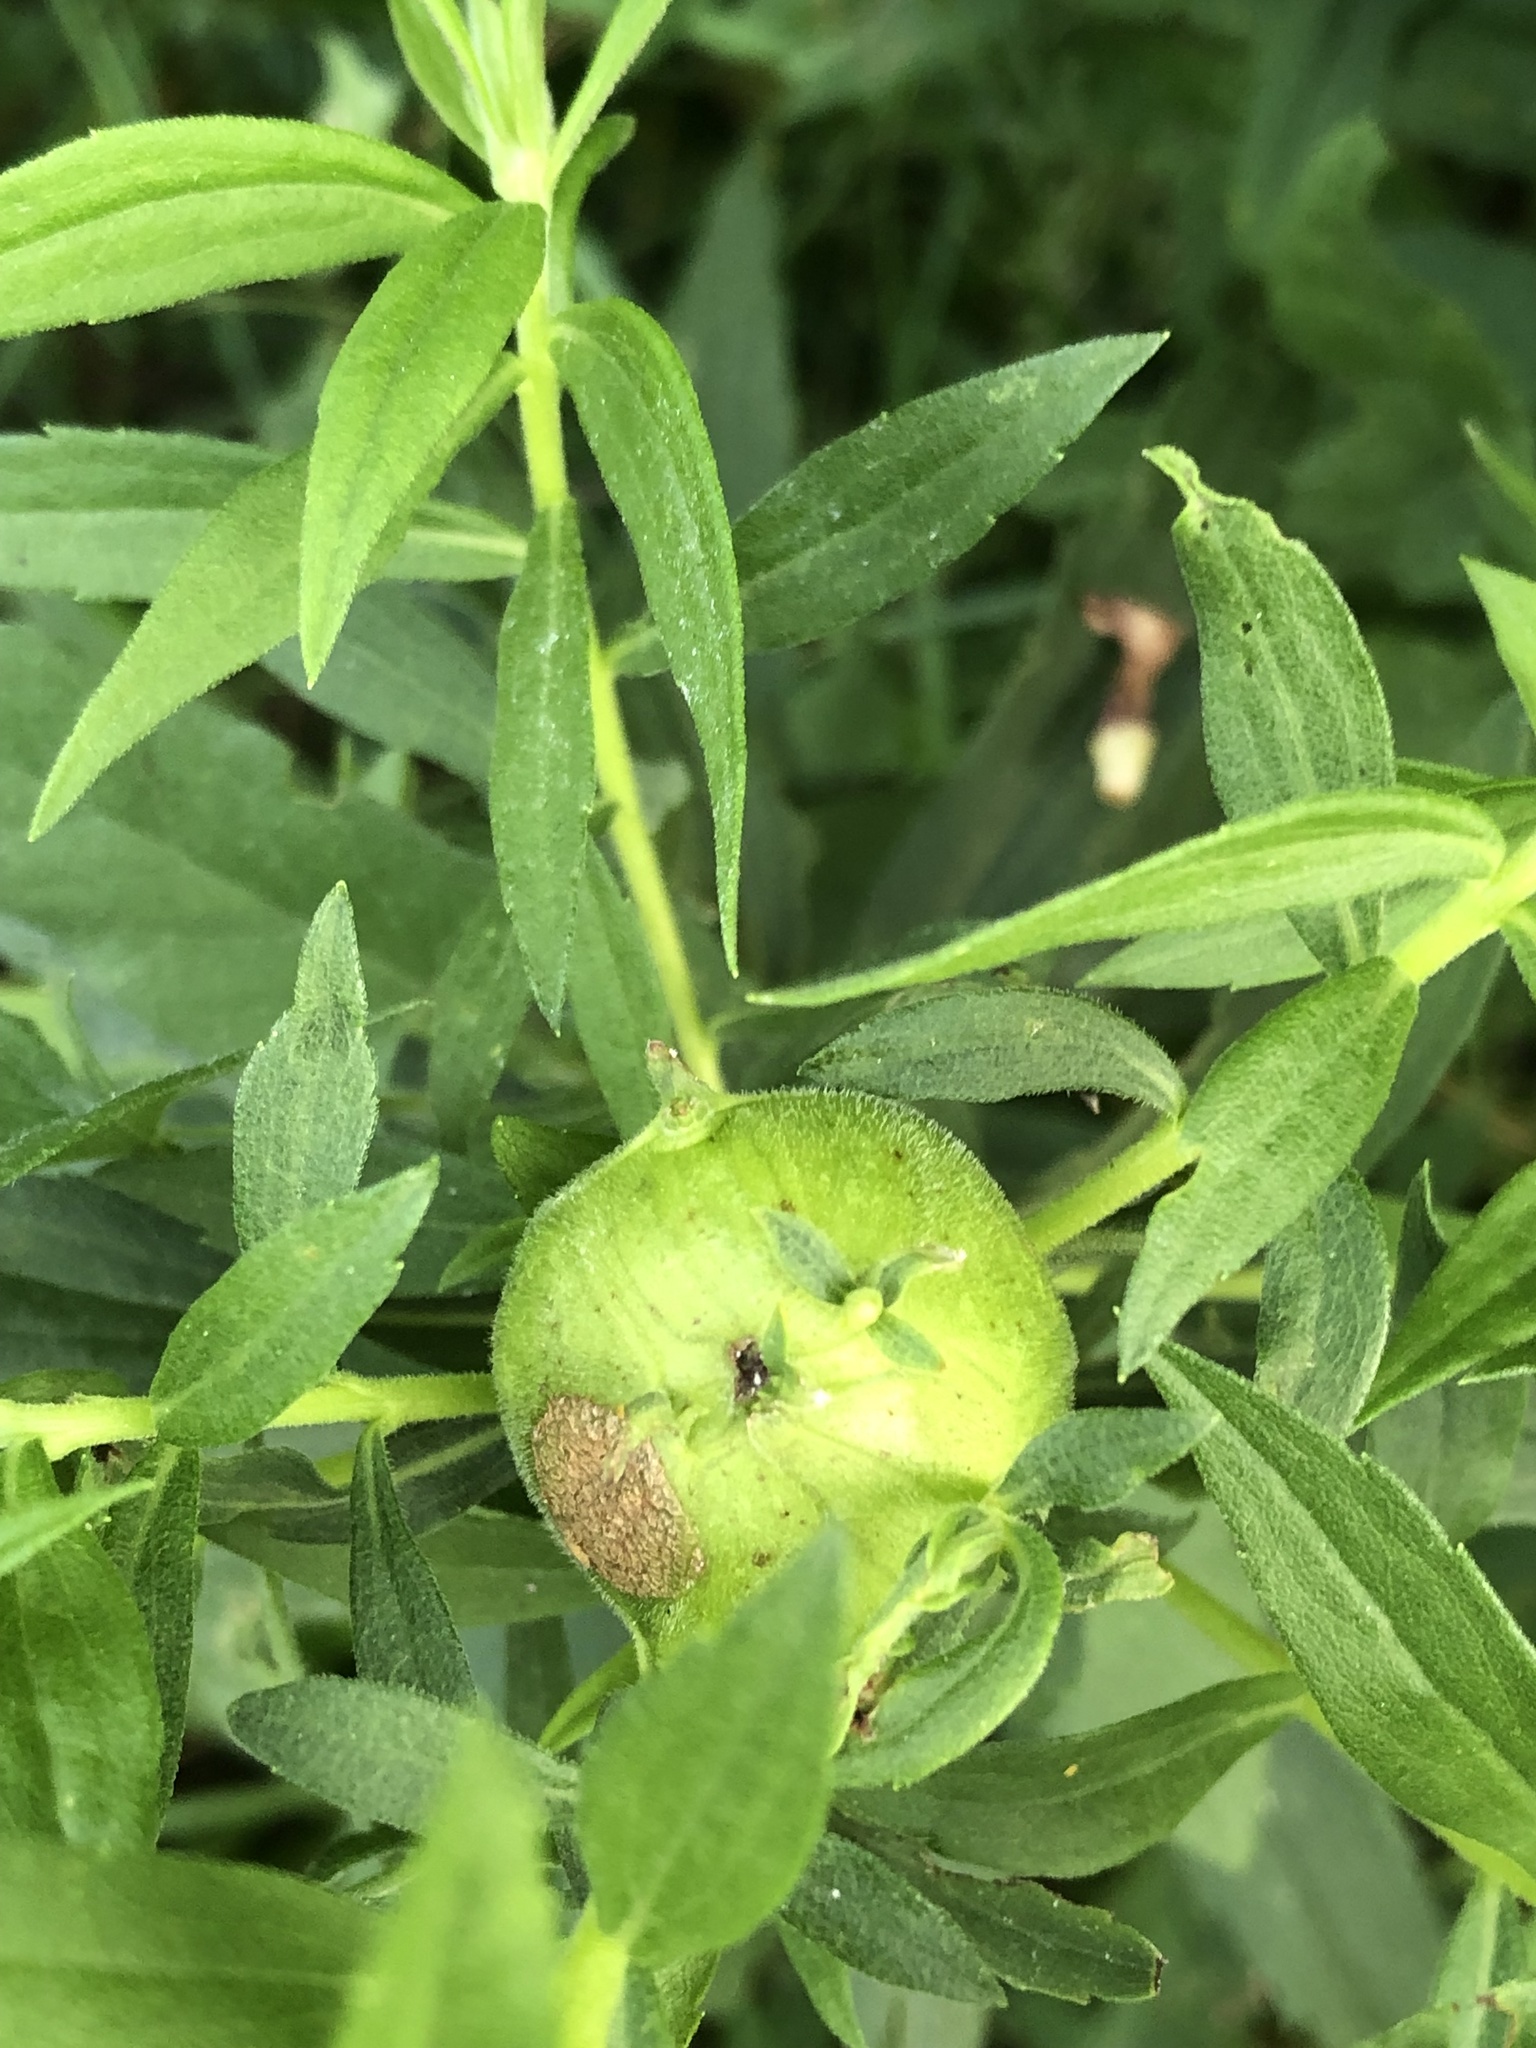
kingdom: Animalia
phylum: Arthropoda
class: Insecta
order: Diptera
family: Tephritidae
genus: Eurosta
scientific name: Eurosta solidaginis
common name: Goldenrod gall fly
